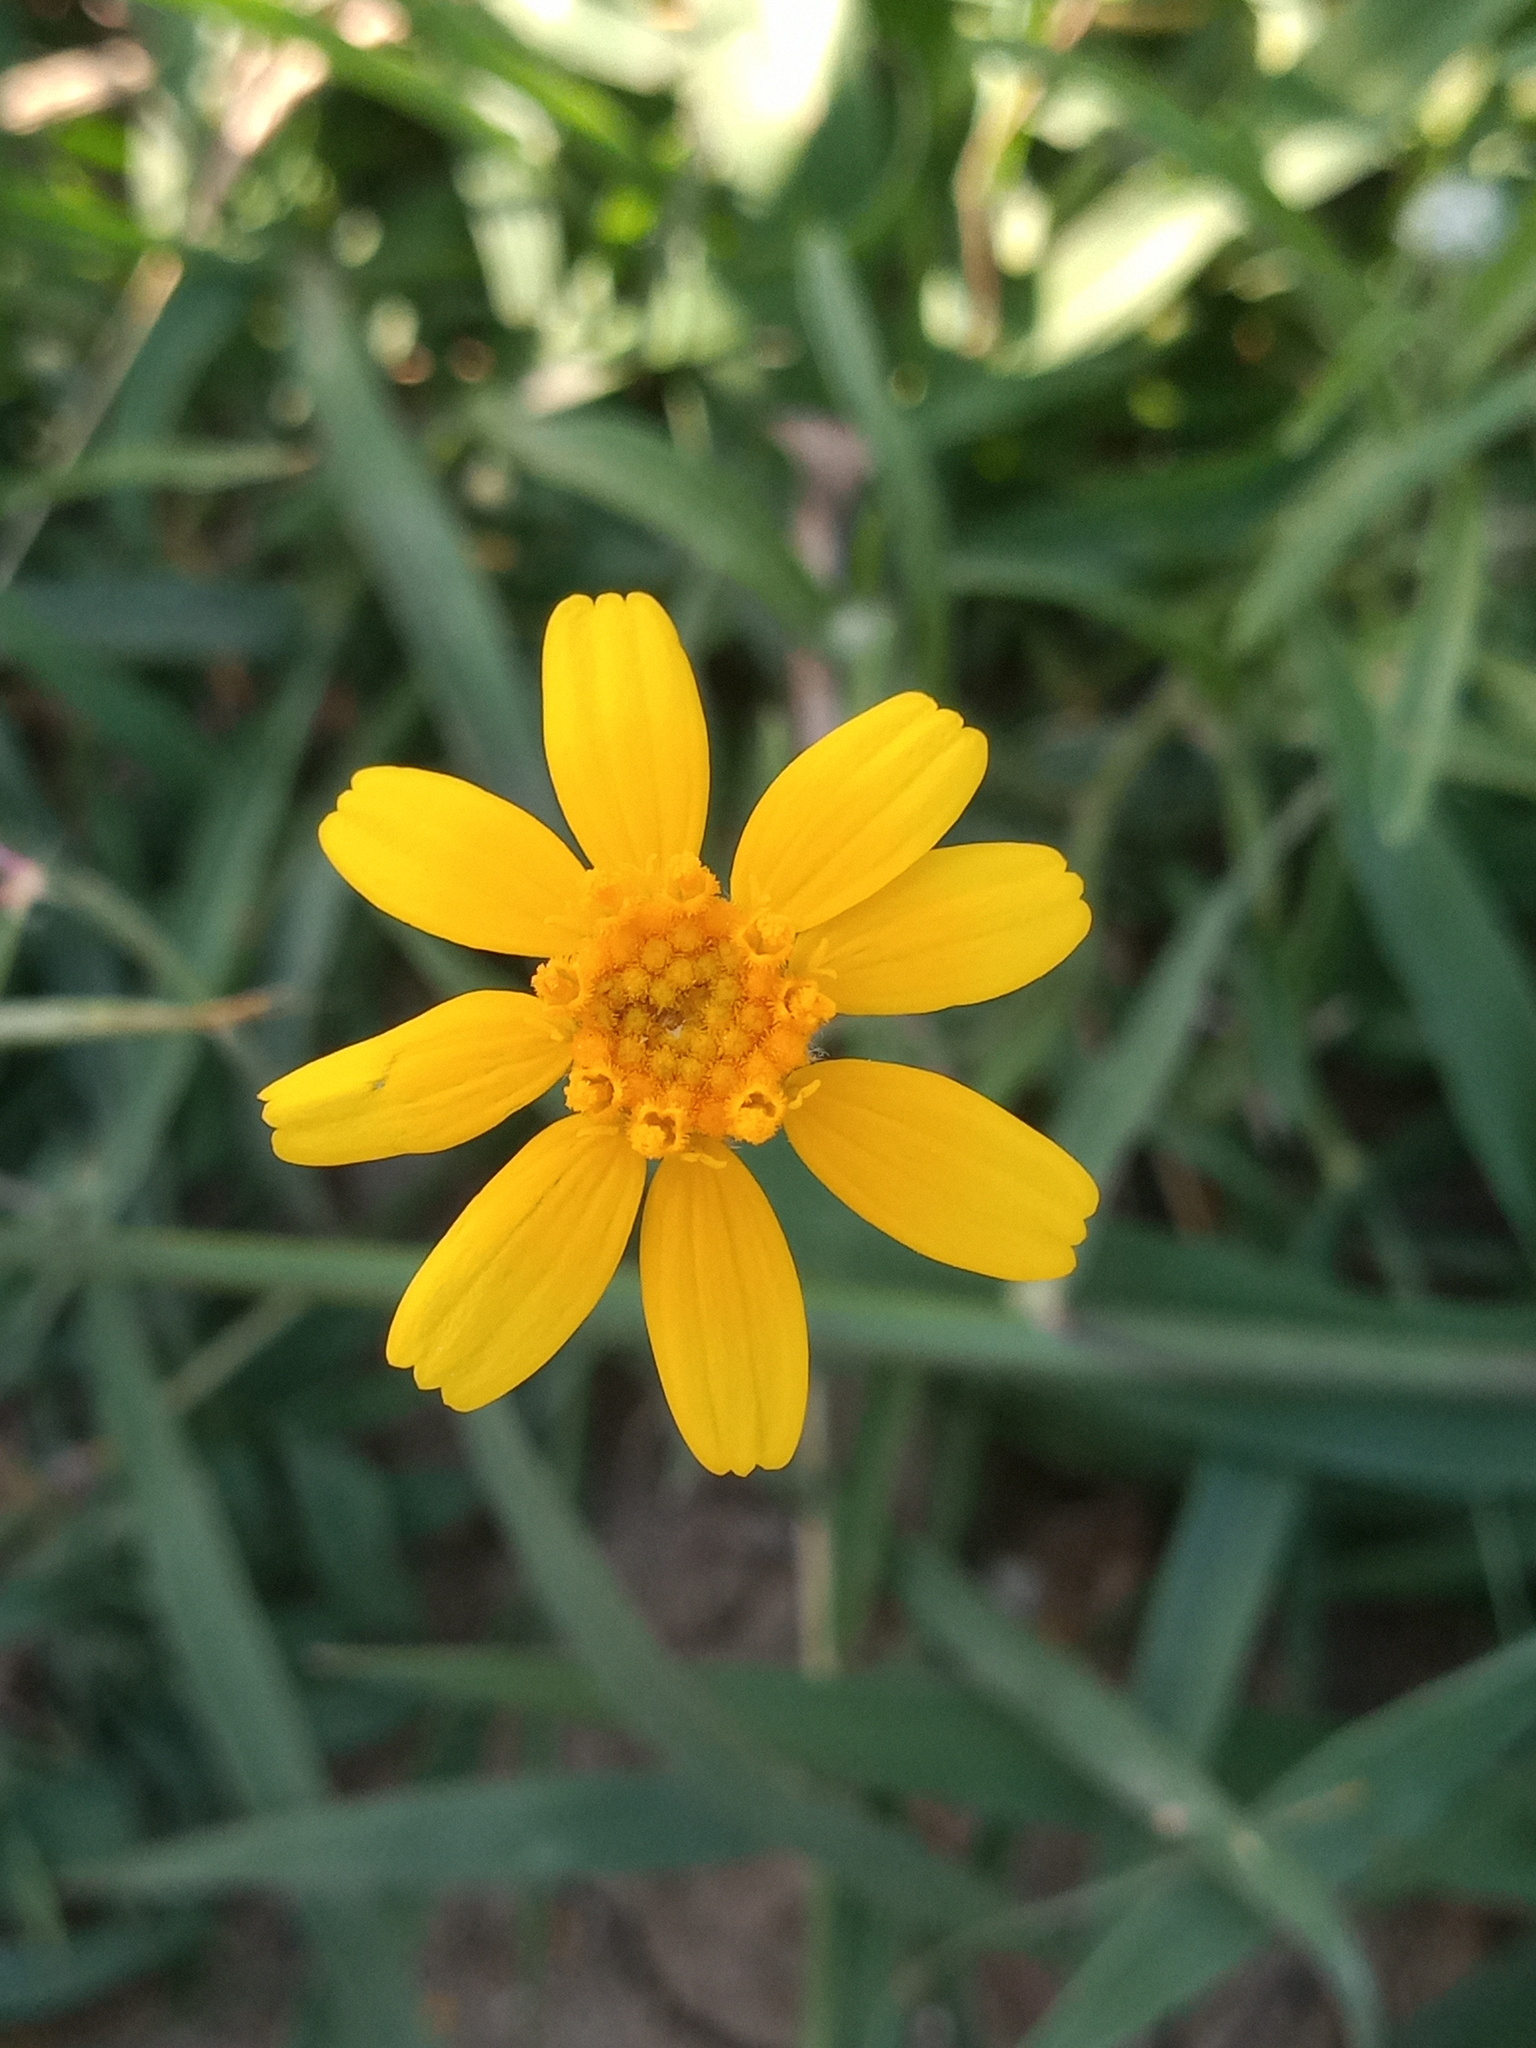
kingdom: Plantae
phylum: Tracheophyta
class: Magnoliopsida
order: Asterales
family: Asteraceae
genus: Tetraneuris
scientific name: Tetraneuris linearifolia
